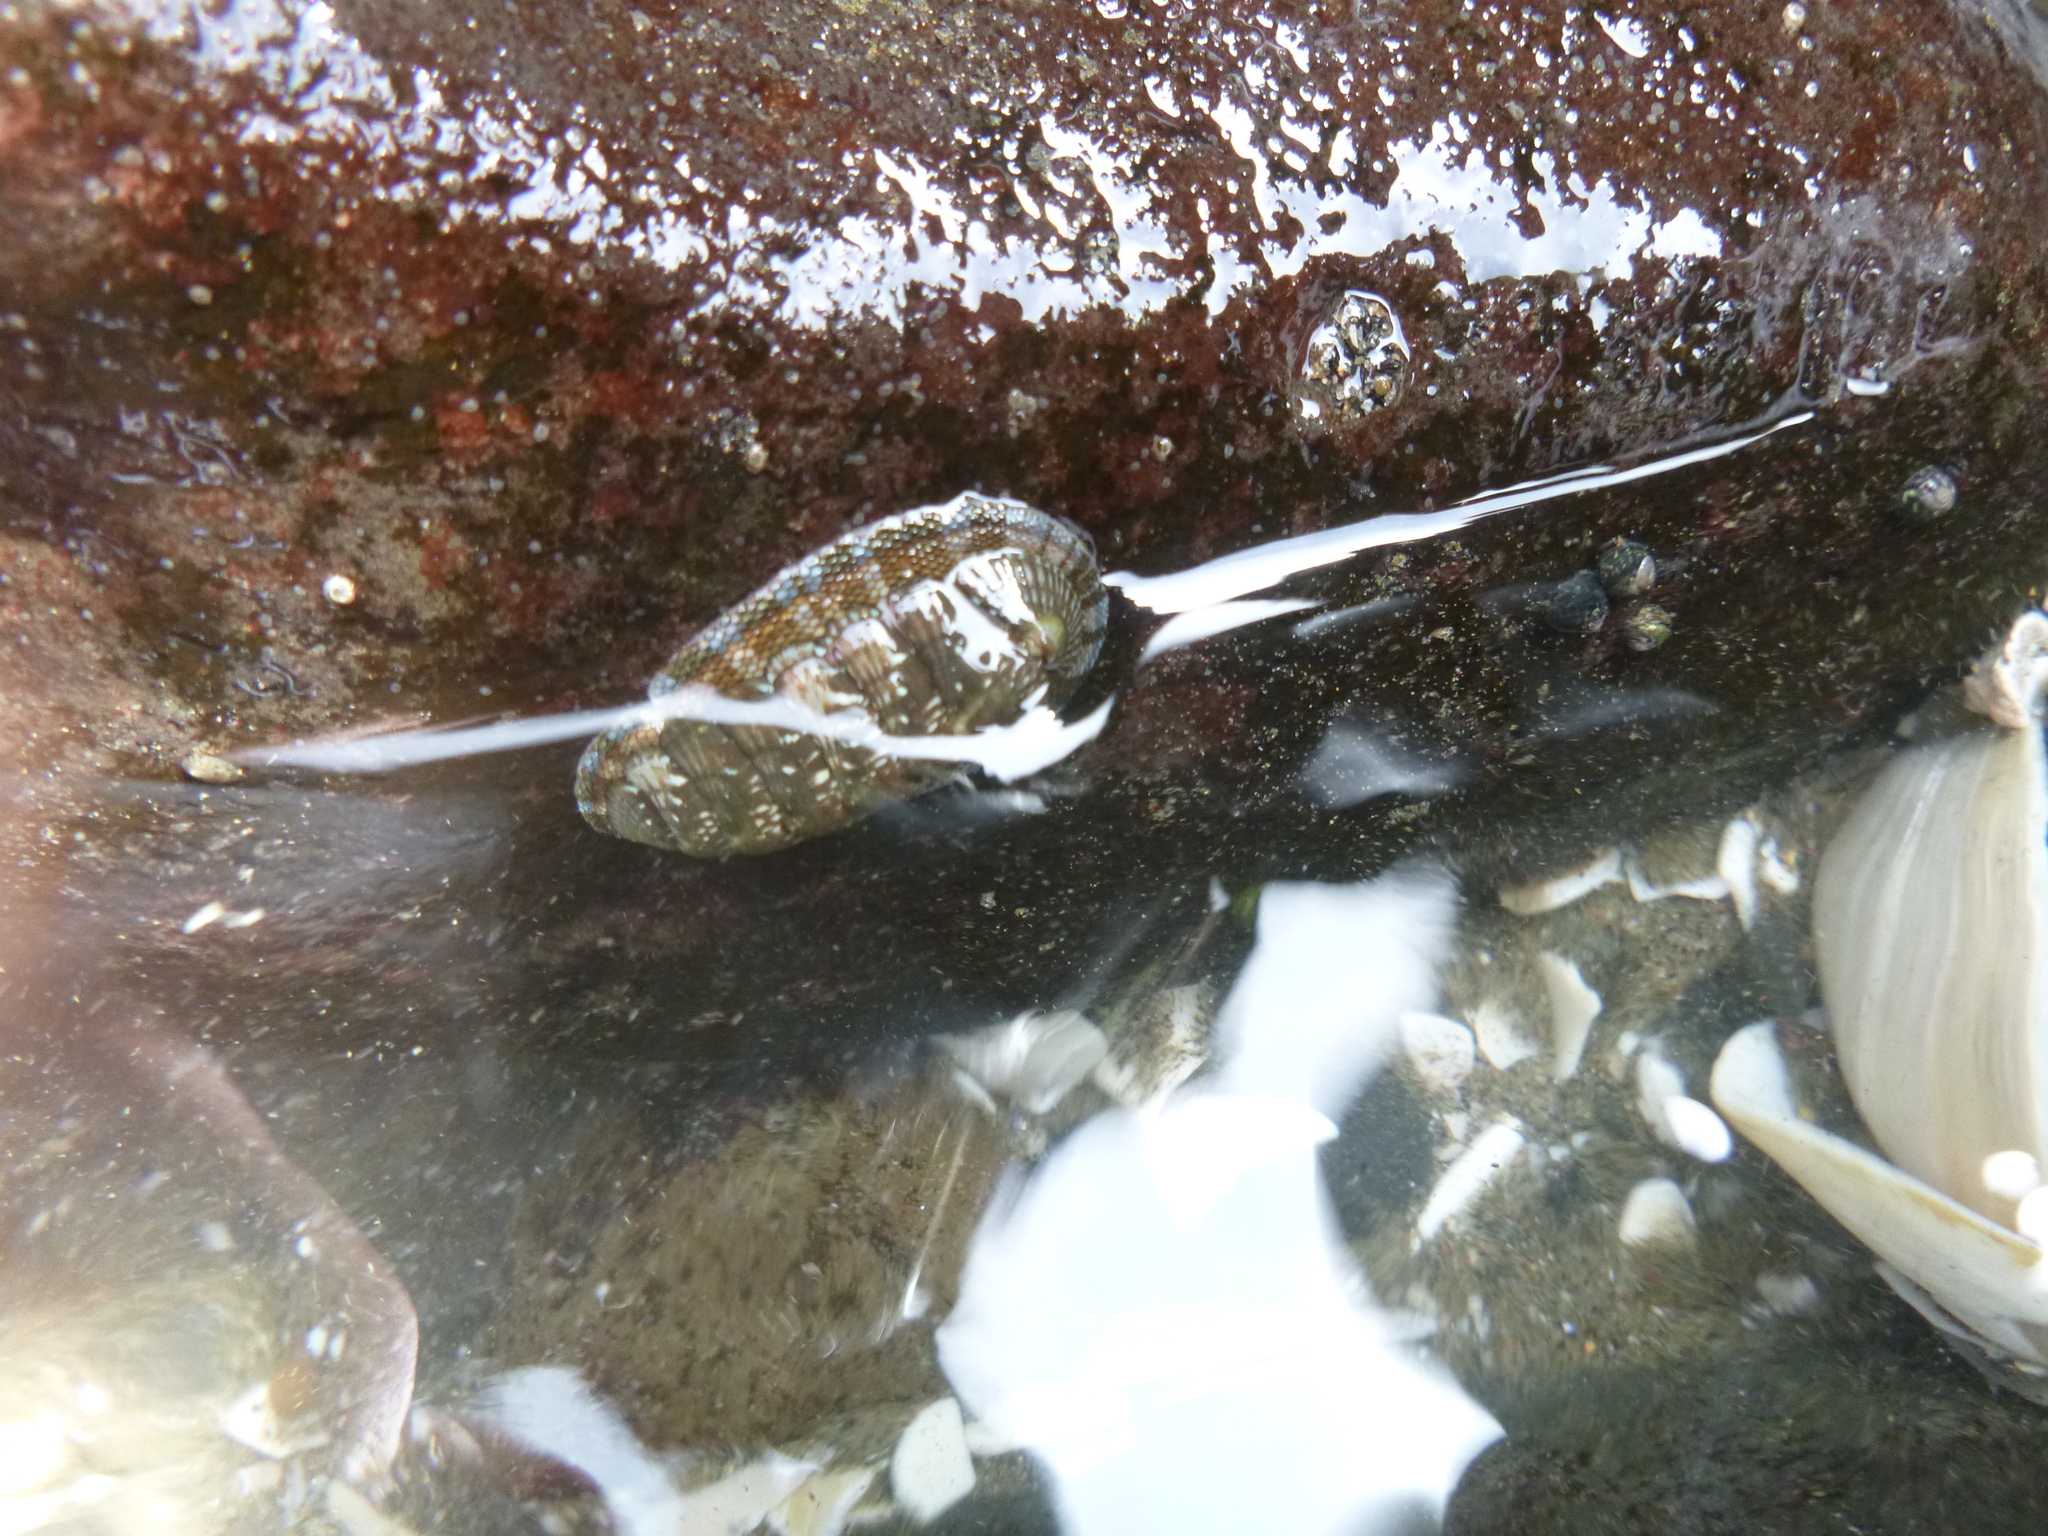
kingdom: Animalia
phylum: Mollusca
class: Polyplacophora
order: Chitonida
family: Chitonidae
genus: Sypharochiton
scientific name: Sypharochiton sinclairi
